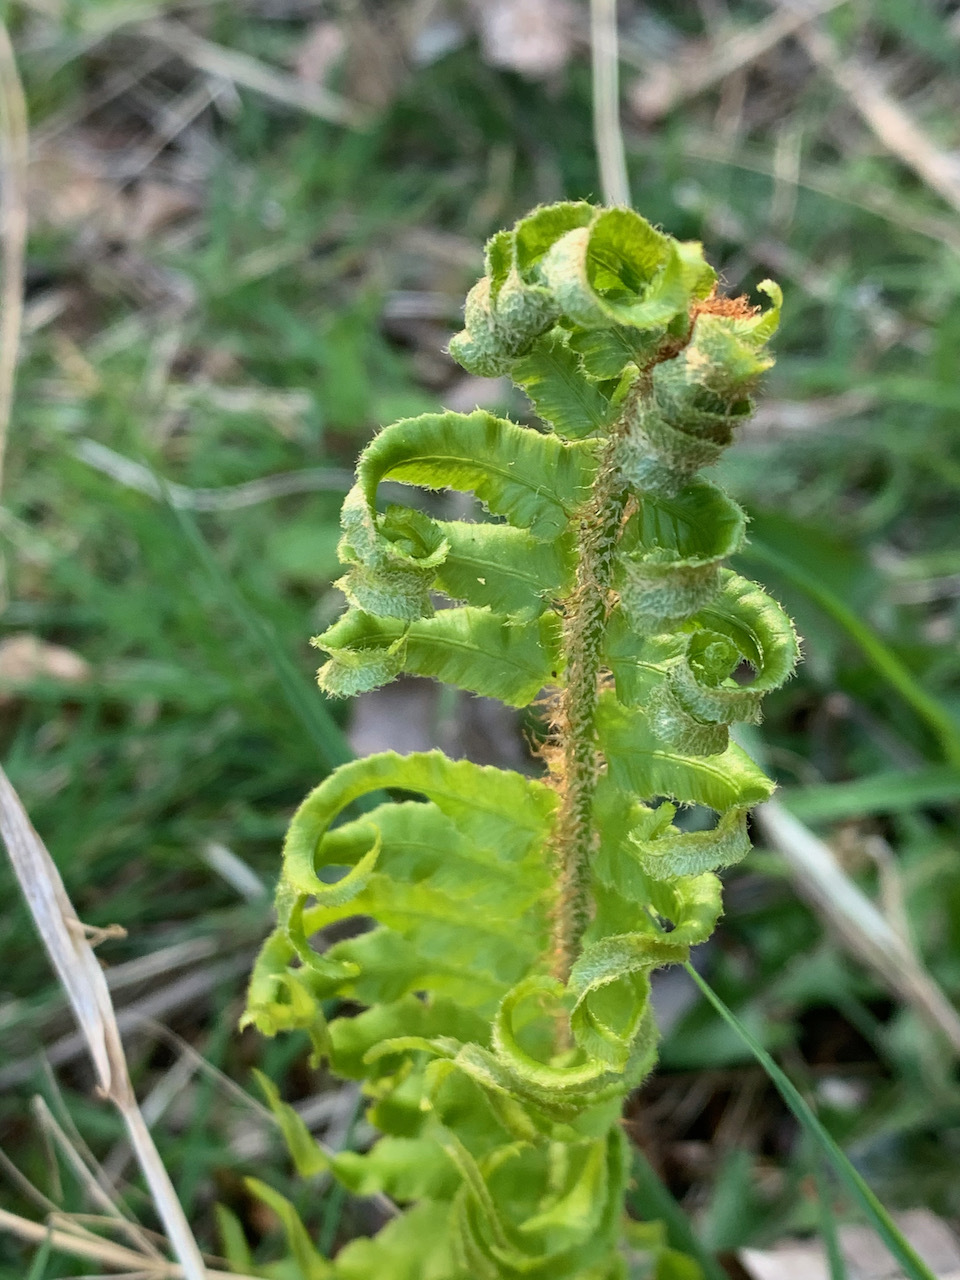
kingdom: Plantae
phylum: Tracheophyta
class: Polypodiopsida
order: Polypodiales
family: Dryopteridaceae
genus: Polystichum
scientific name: Polystichum munitum
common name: Western sword-fern
